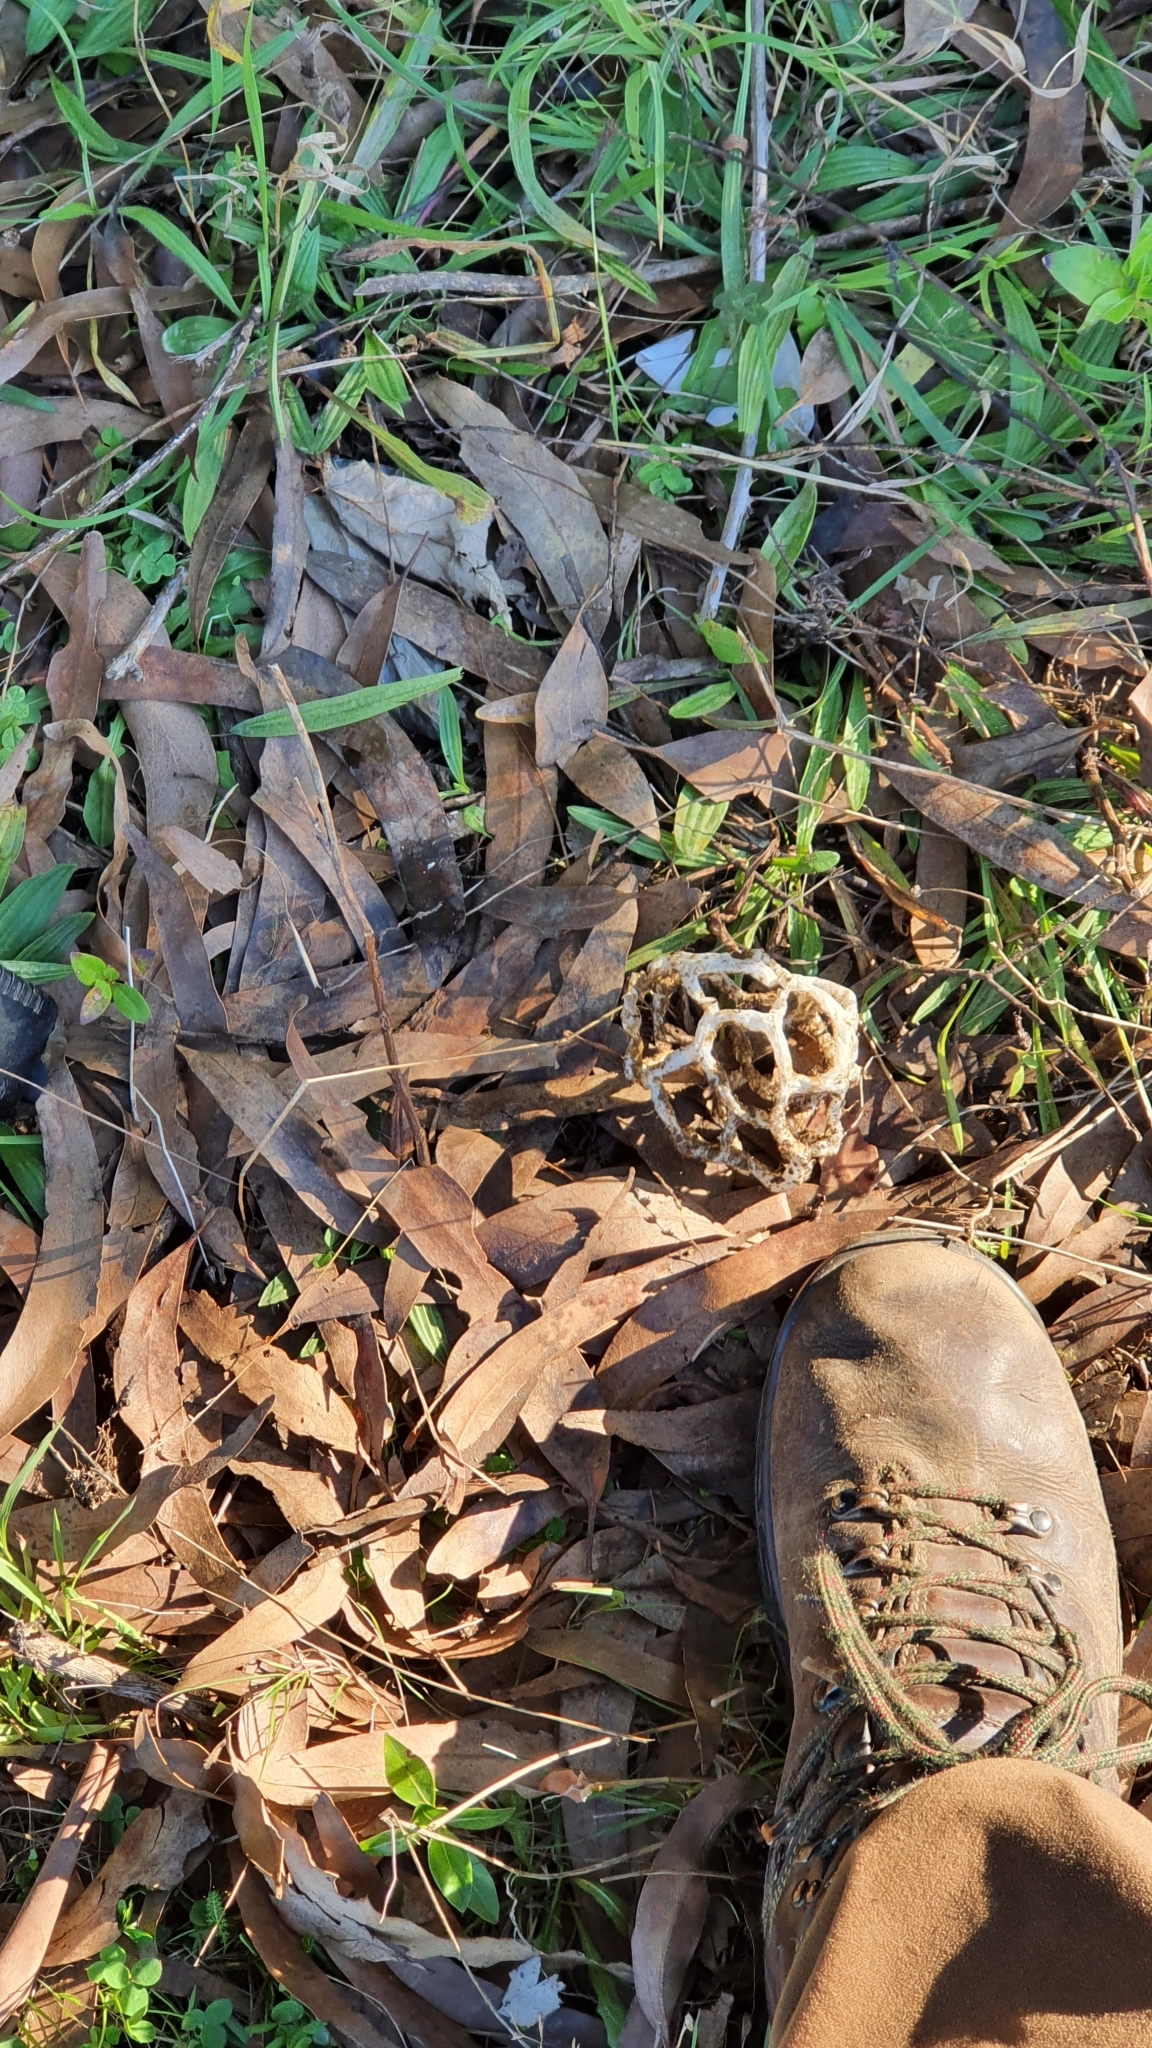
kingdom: Fungi
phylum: Basidiomycota
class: Agaricomycetes
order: Phallales
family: Phallaceae
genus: Ileodictyon
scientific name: Ileodictyon cibarium
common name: Basket fungus
